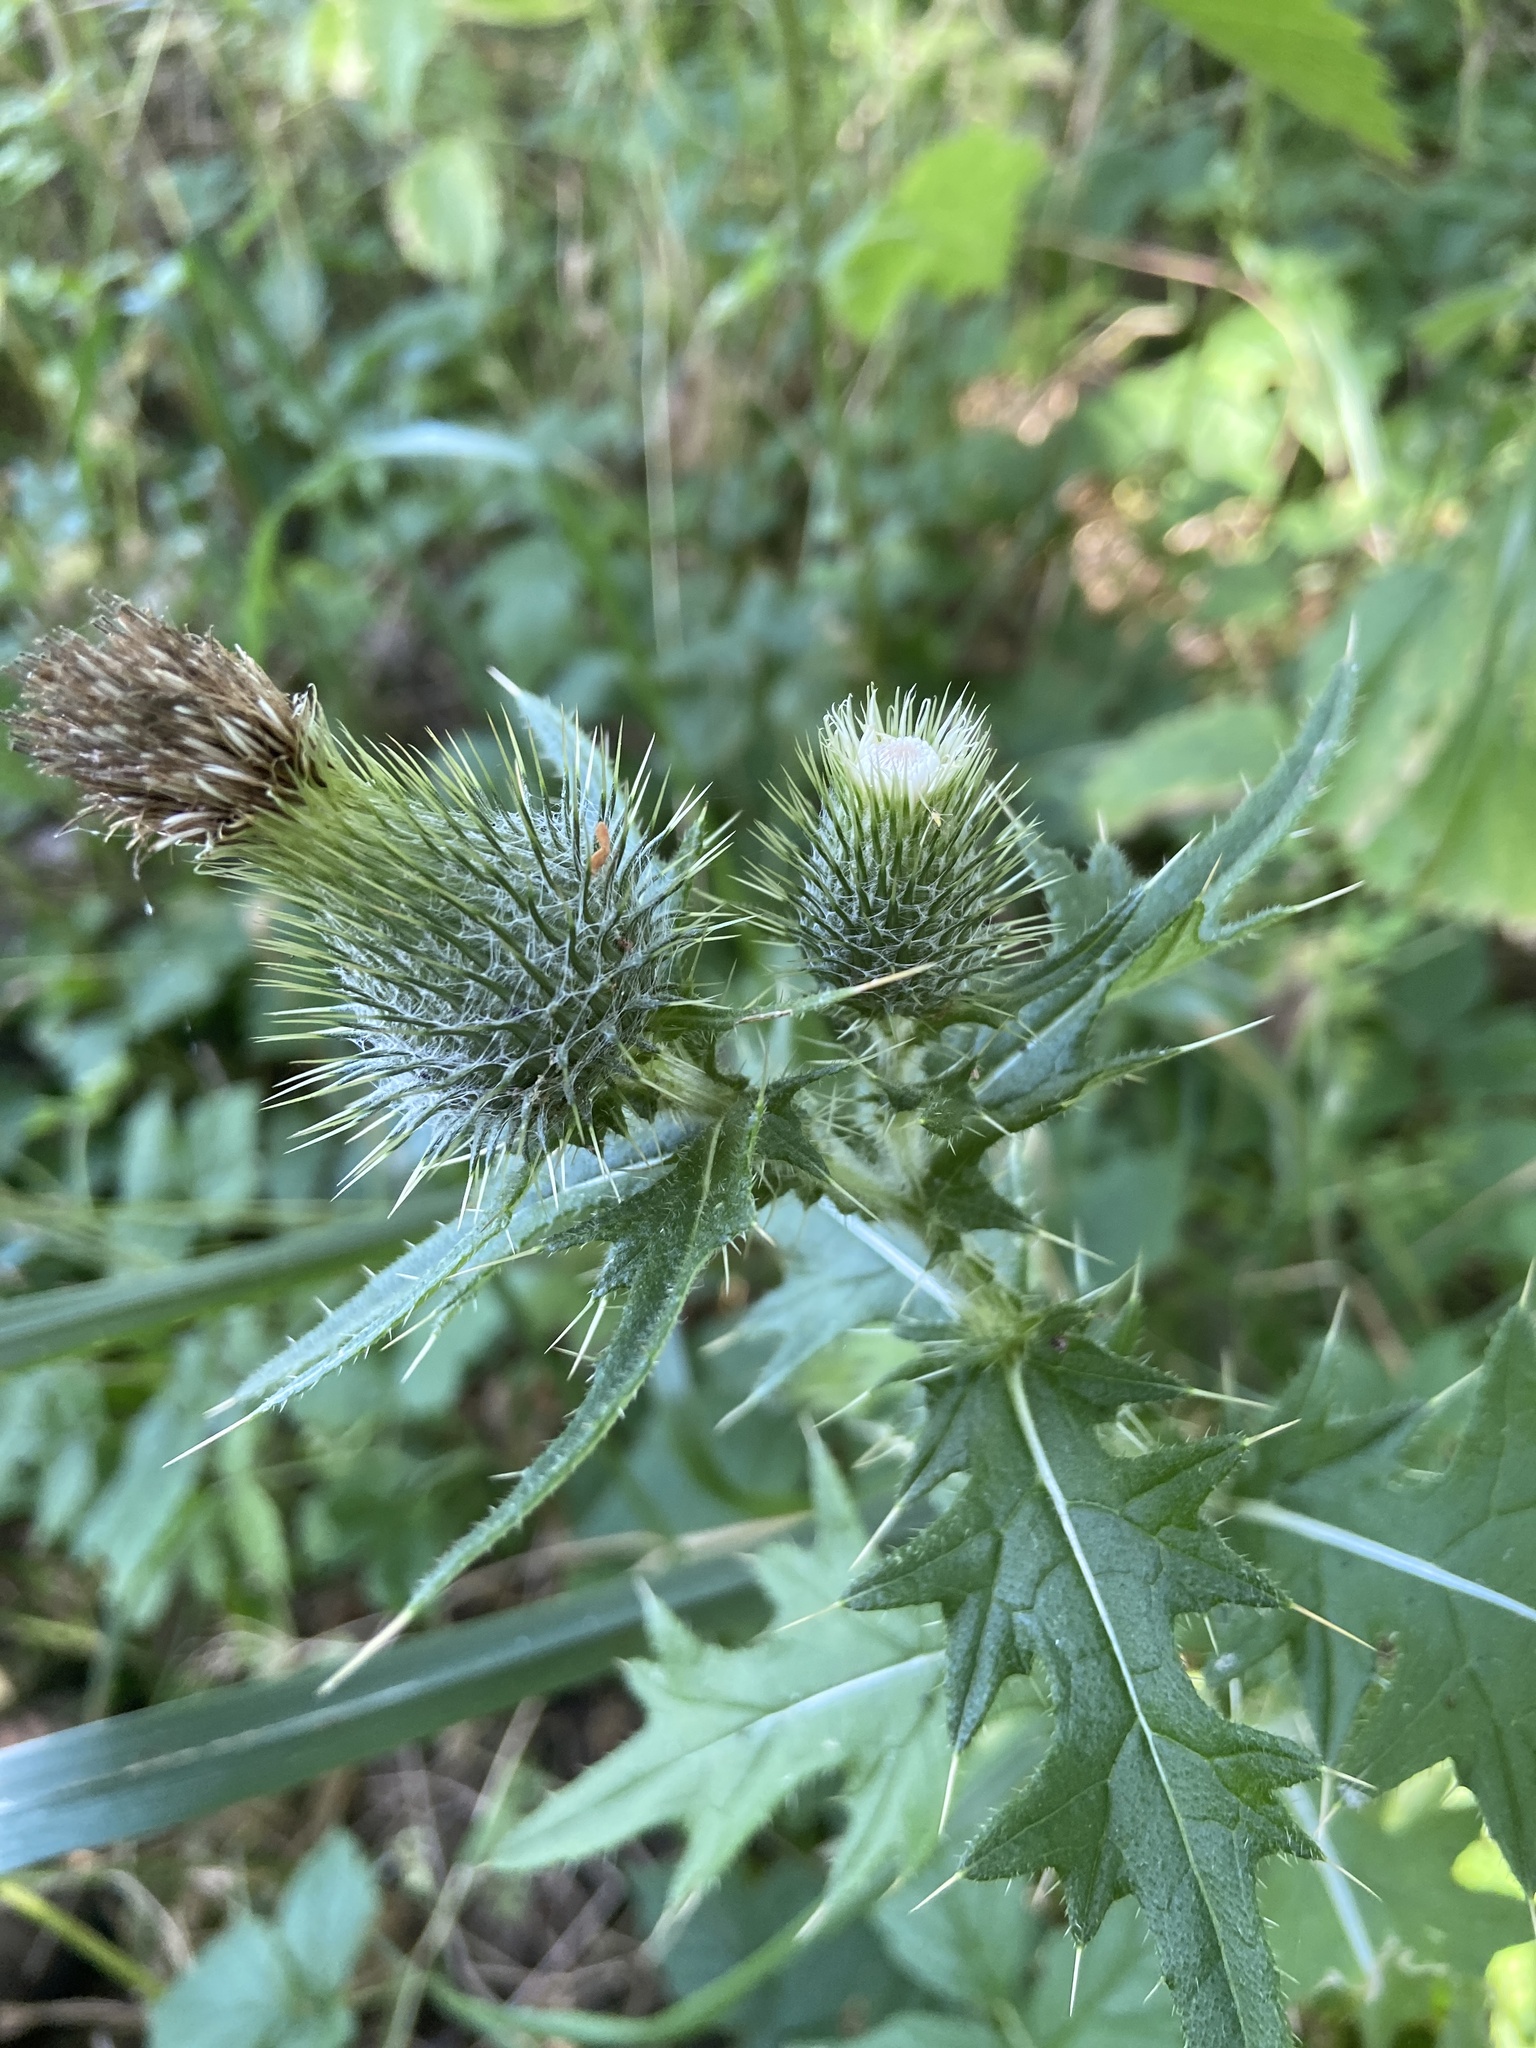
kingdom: Plantae
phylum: Tracheophyta
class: Magnoliopsida
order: Asterales
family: Asteraceae
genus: Cirsium
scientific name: Cirsium vulgare
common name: Bull thistle
